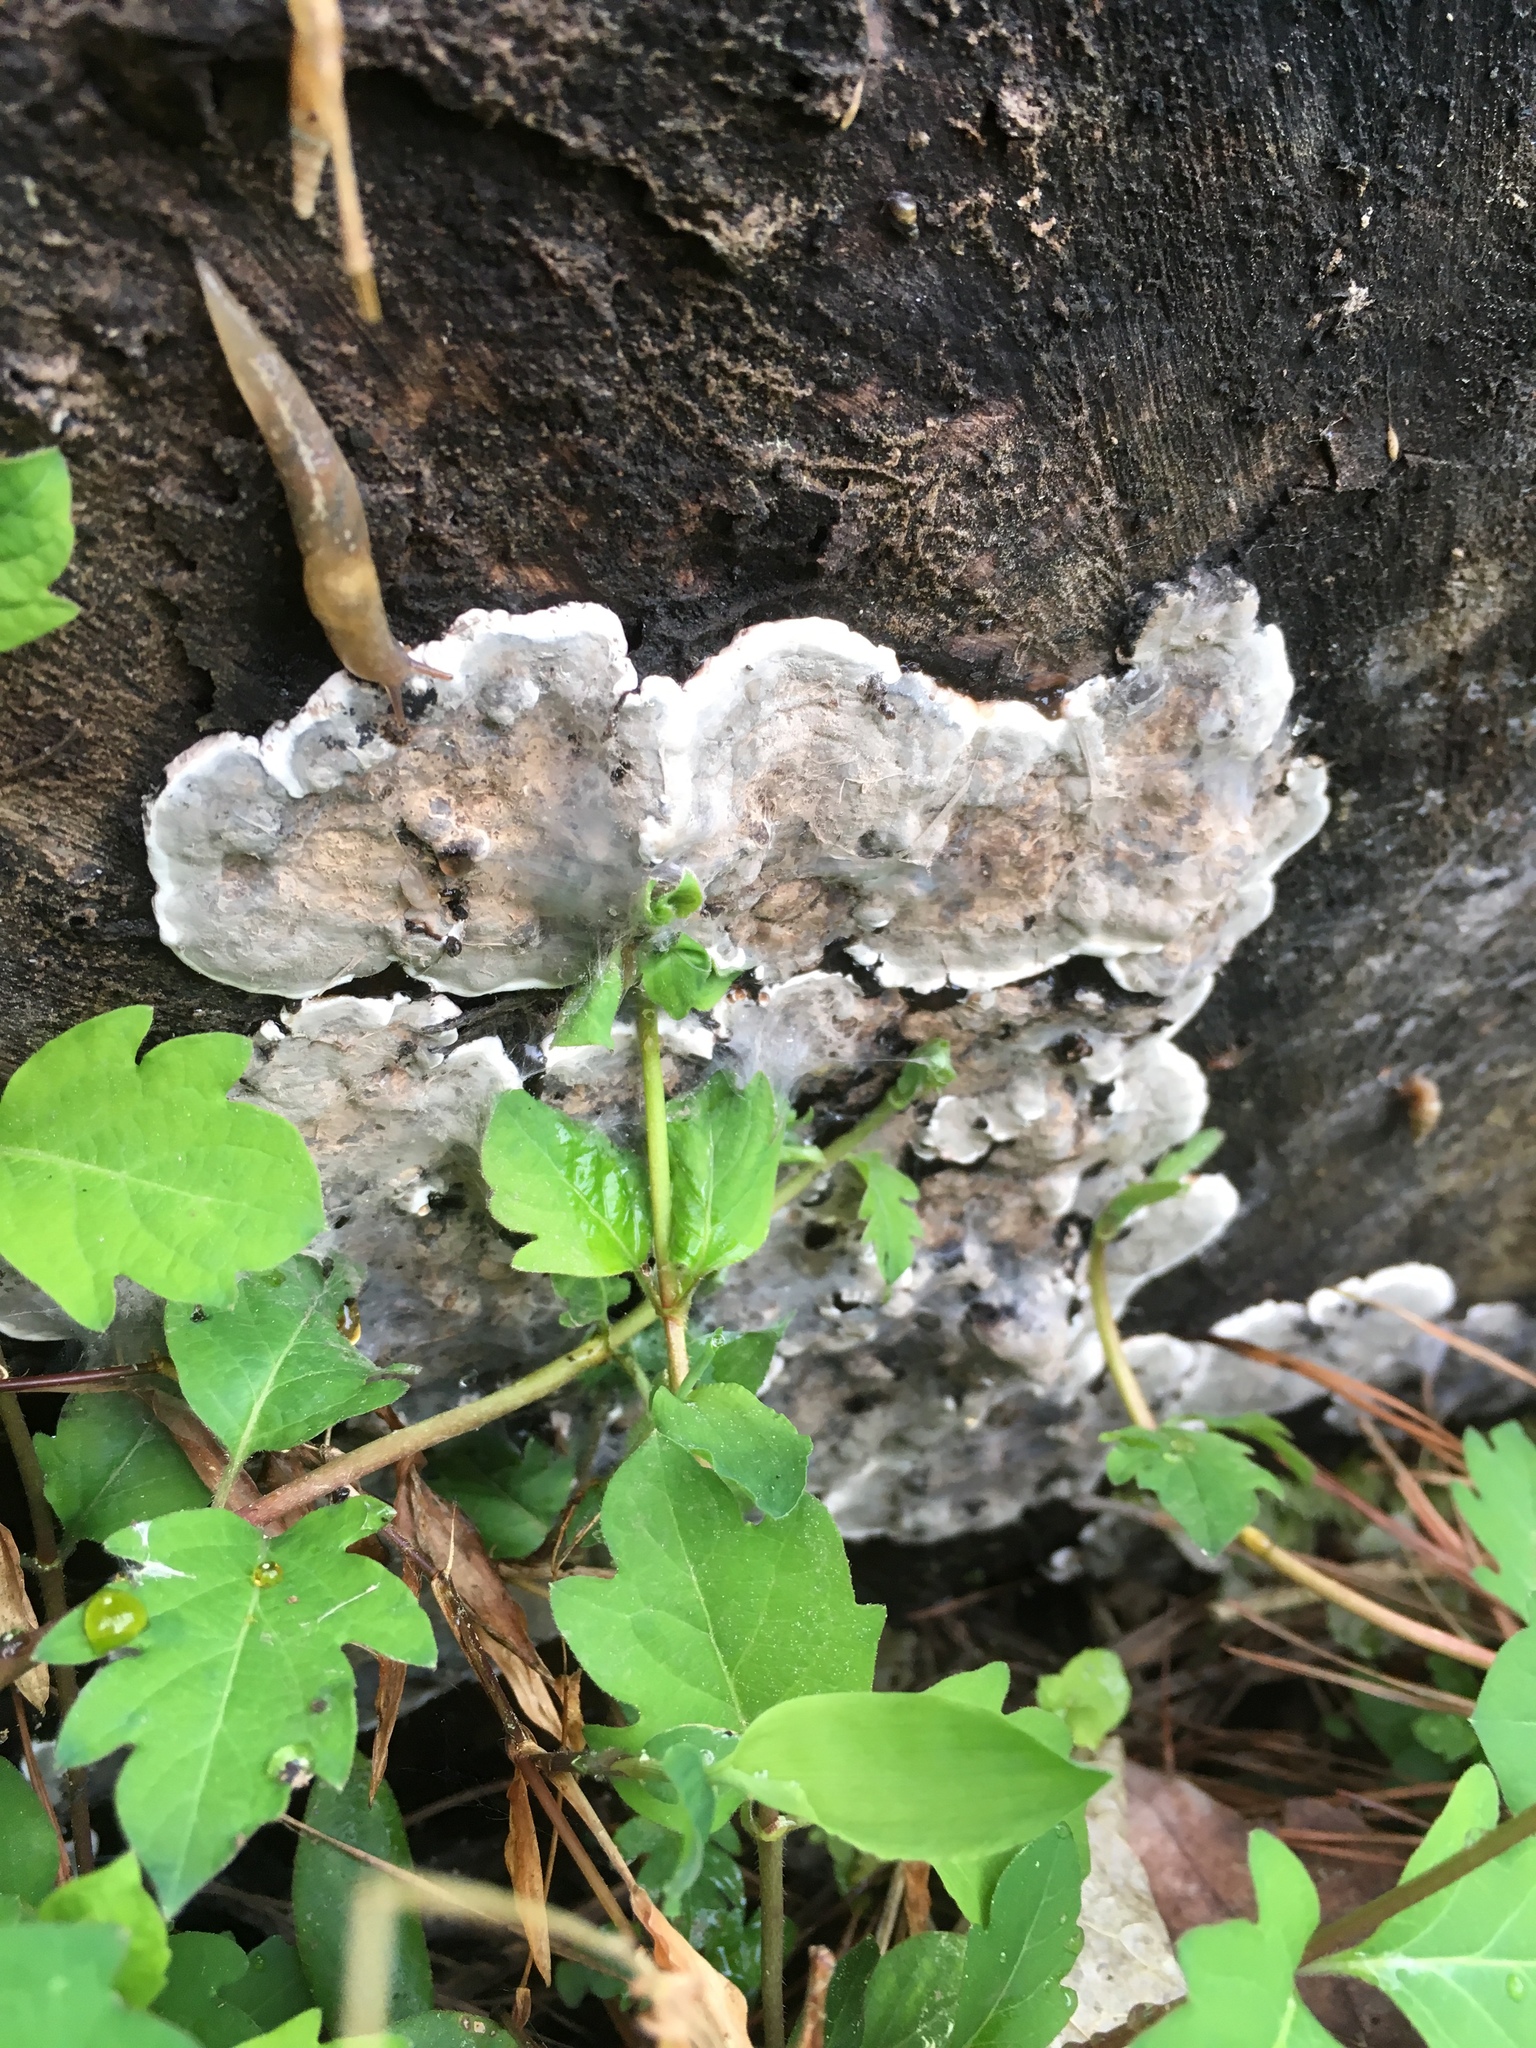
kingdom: Fungi
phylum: Ascomycota
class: Sordariomycetes
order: Xylariales
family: Xylariaceae
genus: Kretzschmaria
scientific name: Kretzschmaria deusta
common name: Brittle cinder
